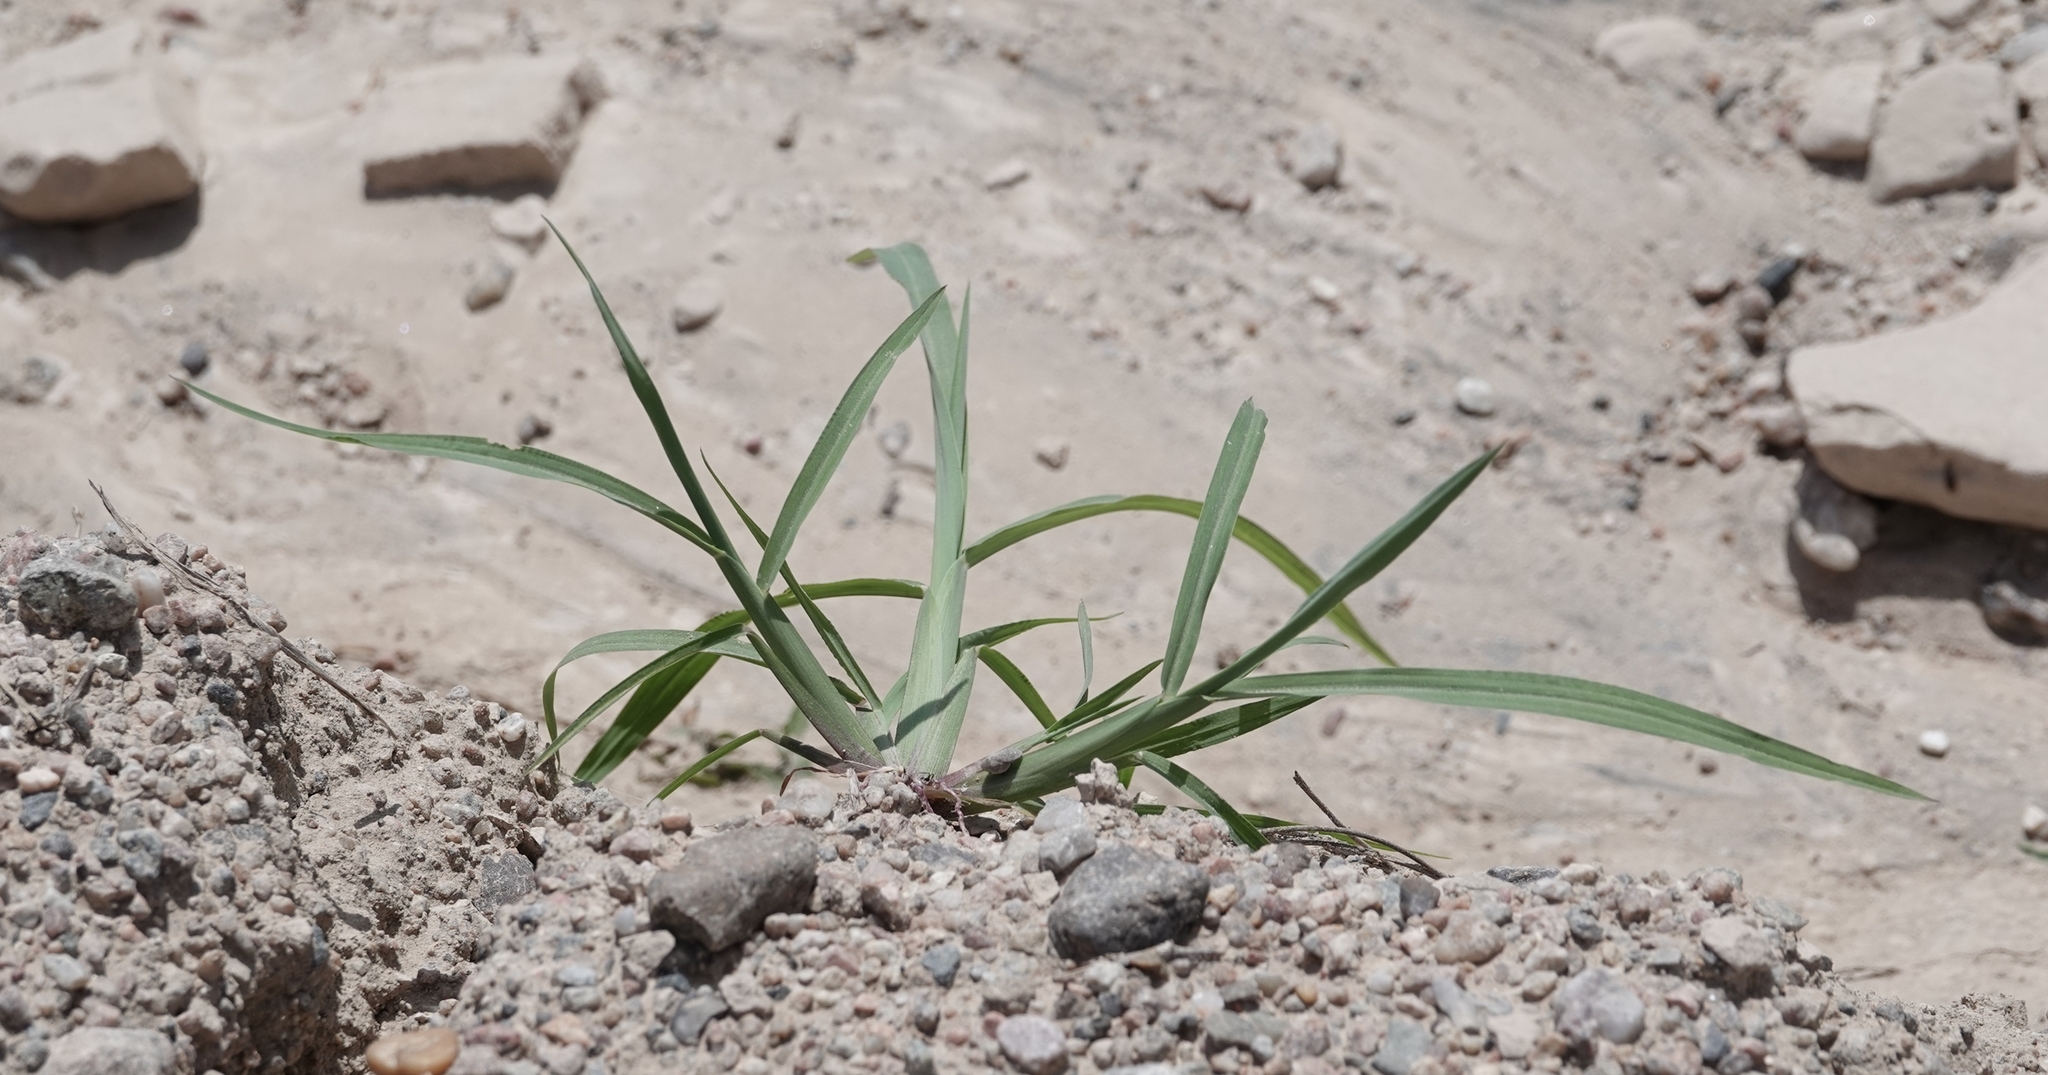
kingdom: Plantae
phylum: Tracheophyta
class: Liliopsida
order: Poales
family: Poaceae
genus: Cenchrus
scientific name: Cenchrus longispinus
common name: Mat sandbur
